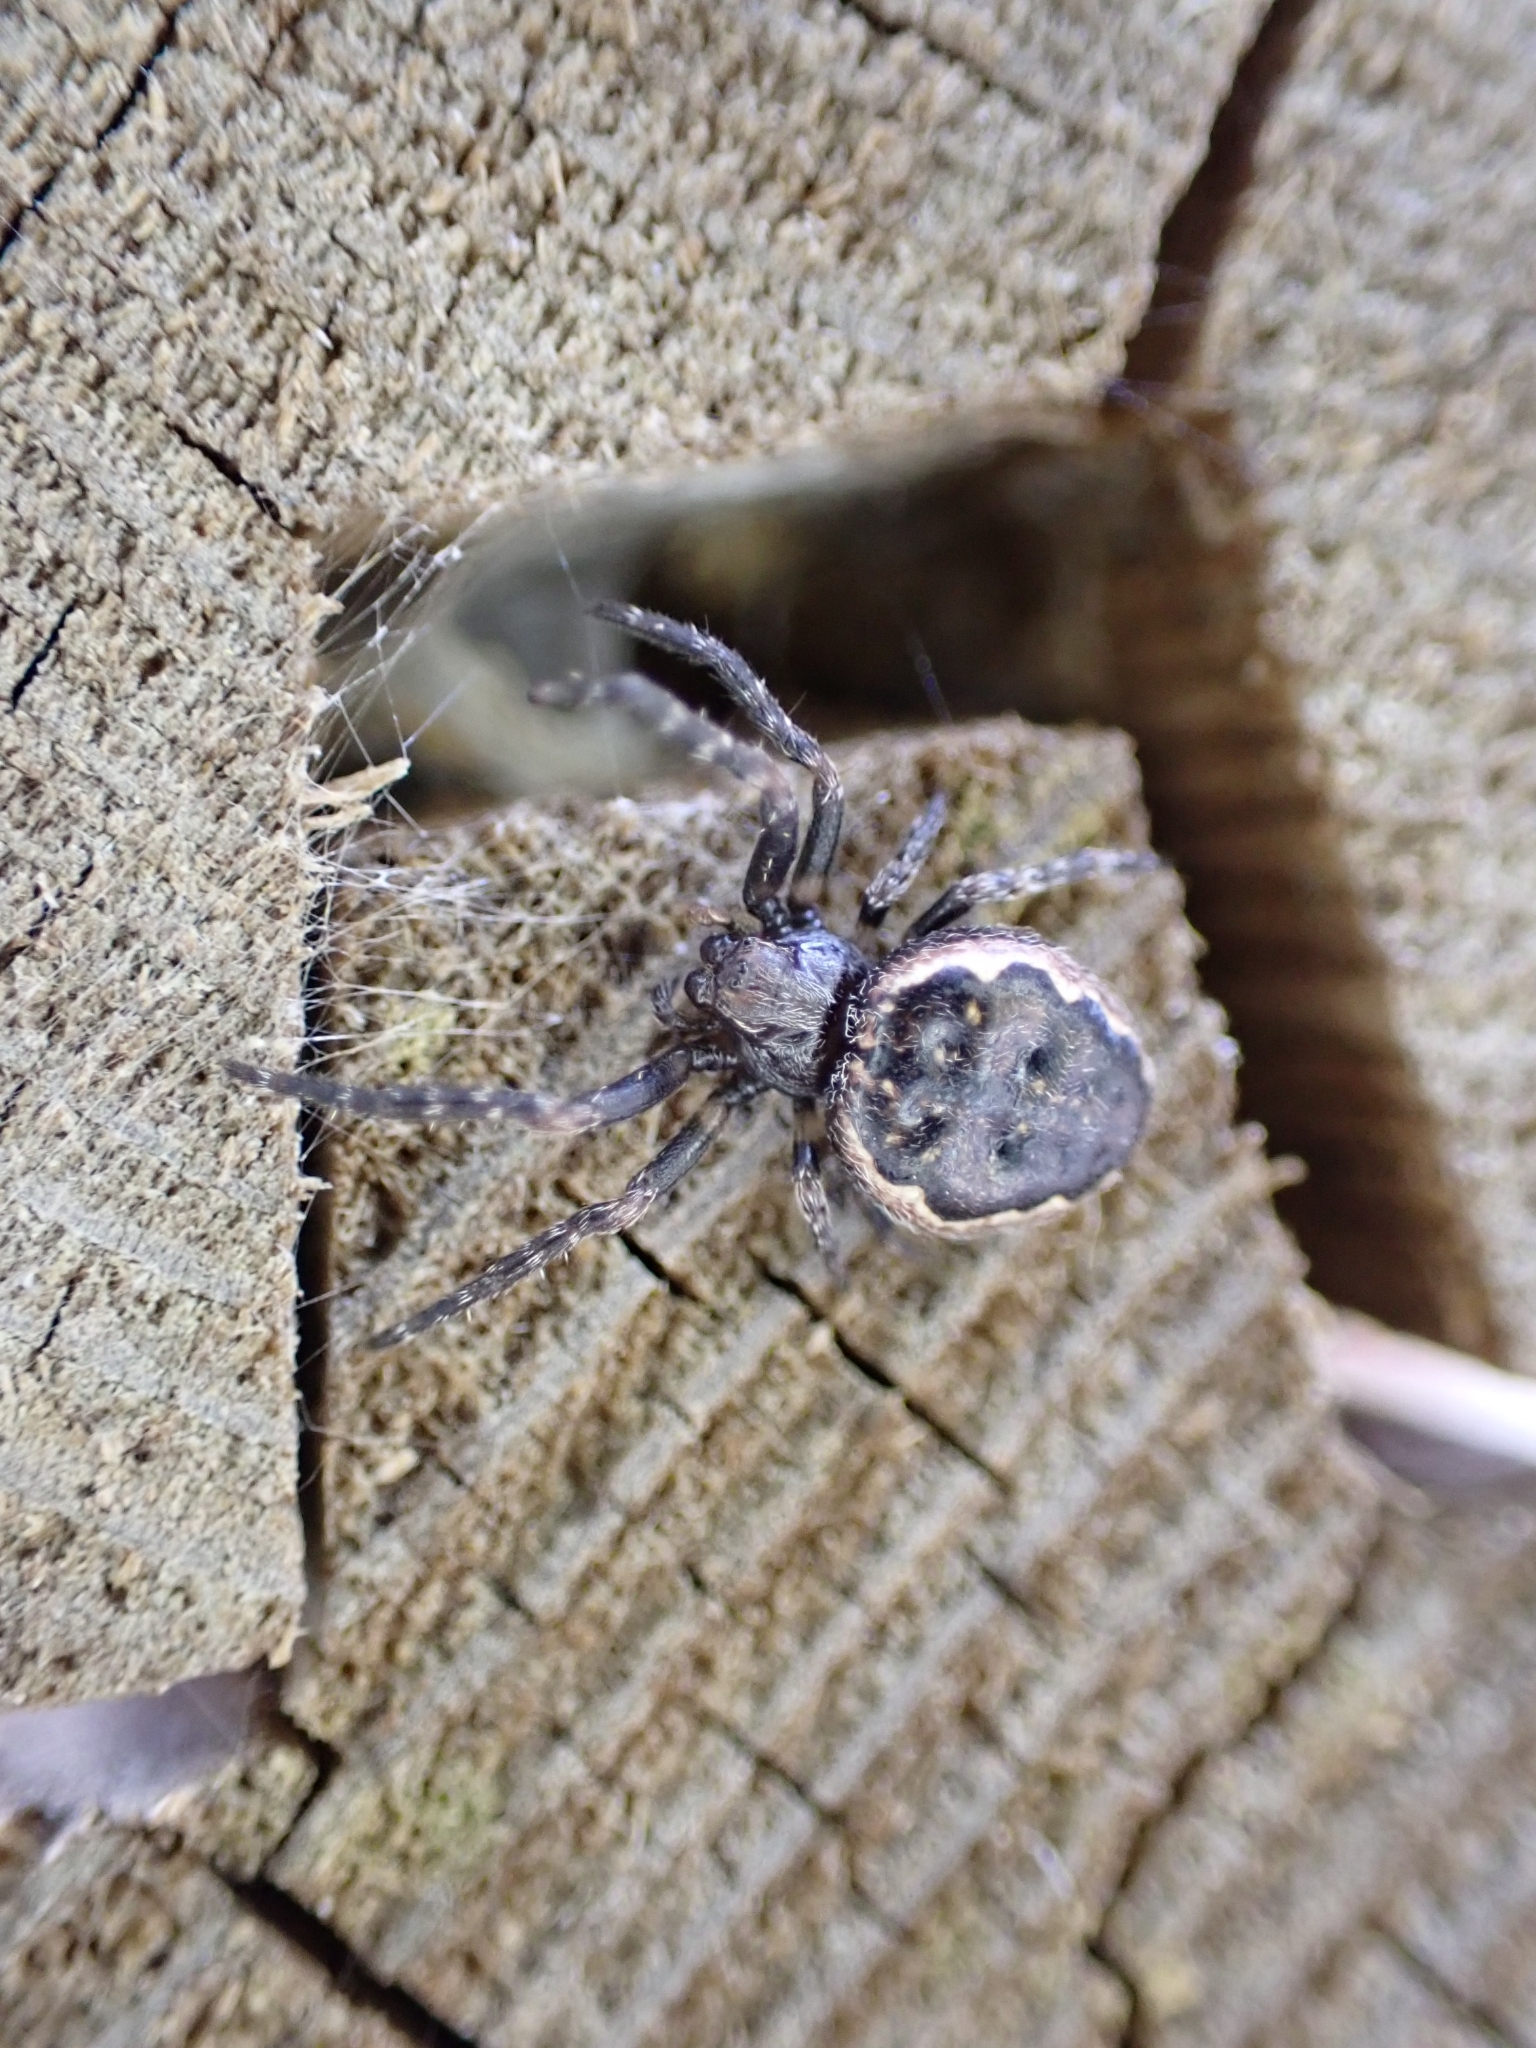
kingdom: Animalia
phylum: Arthropoda
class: Arachnida
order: Araneae
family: Araneidae
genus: Nuctenea
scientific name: Nuctenea umbratica
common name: Toad spider
